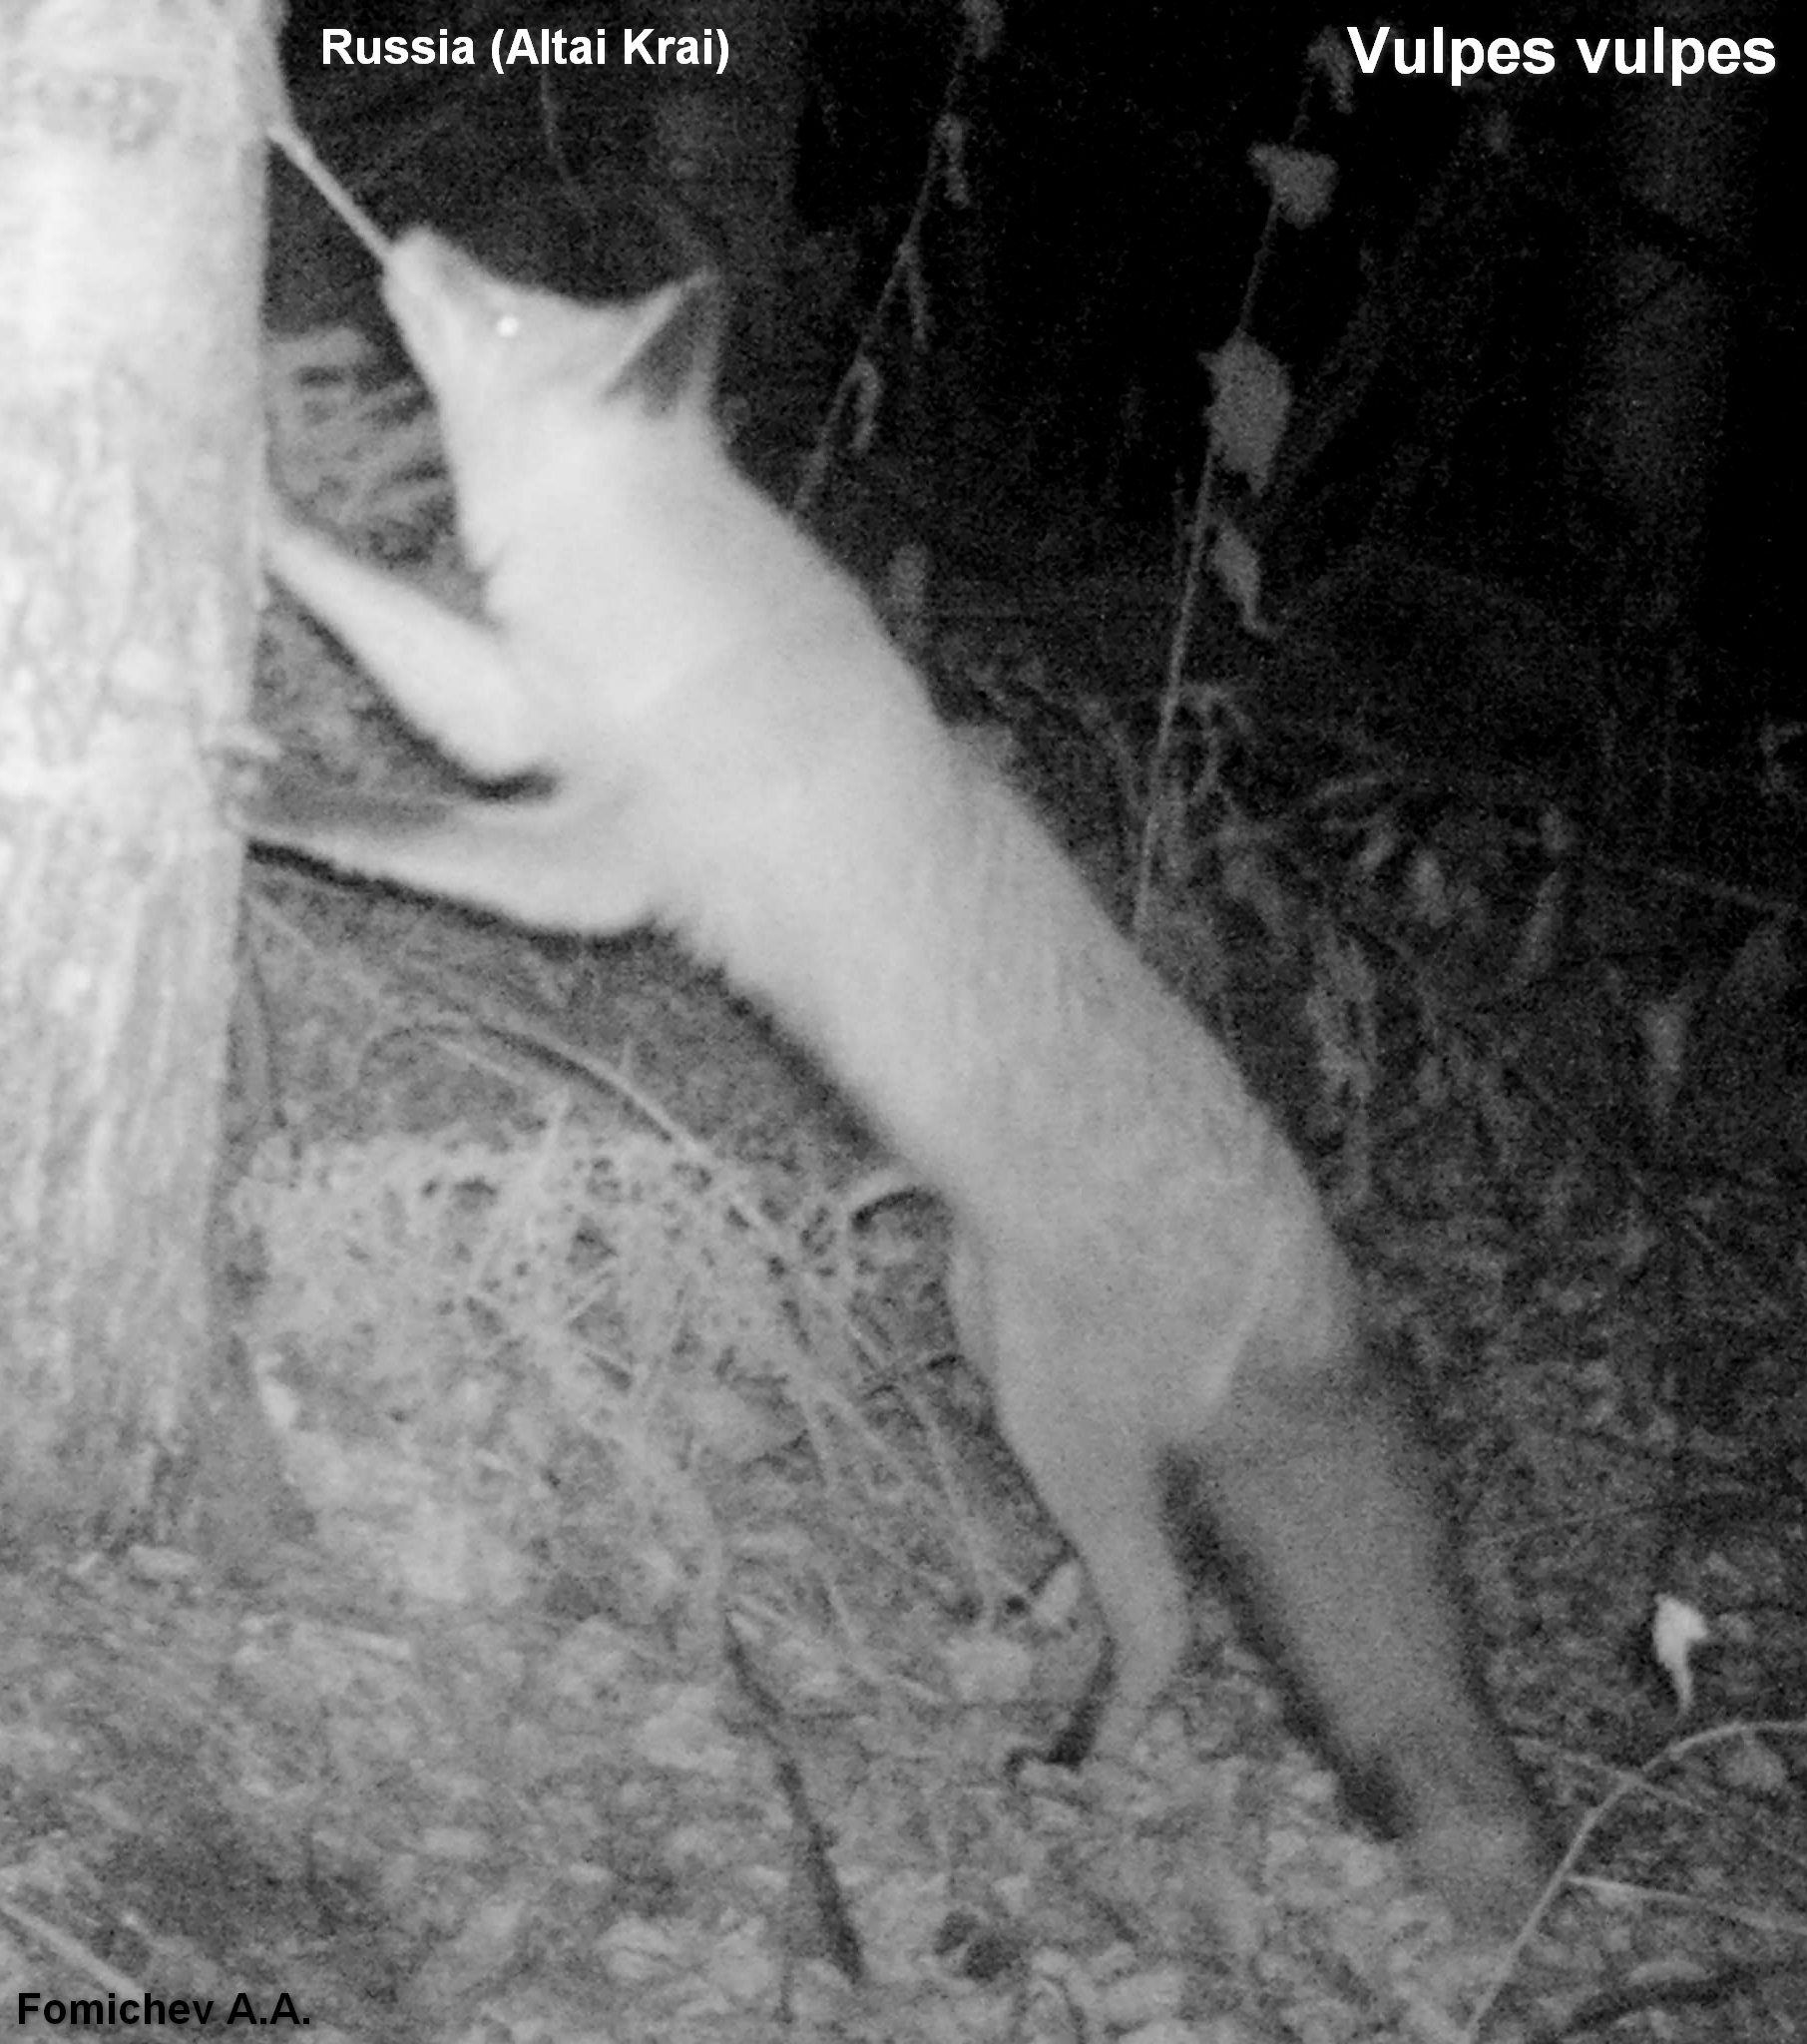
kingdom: Animalia
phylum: Chordata
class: Mammalia
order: Carnivora
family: Canidae
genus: Vulpes
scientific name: Vulpes vulpes
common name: Red fox
